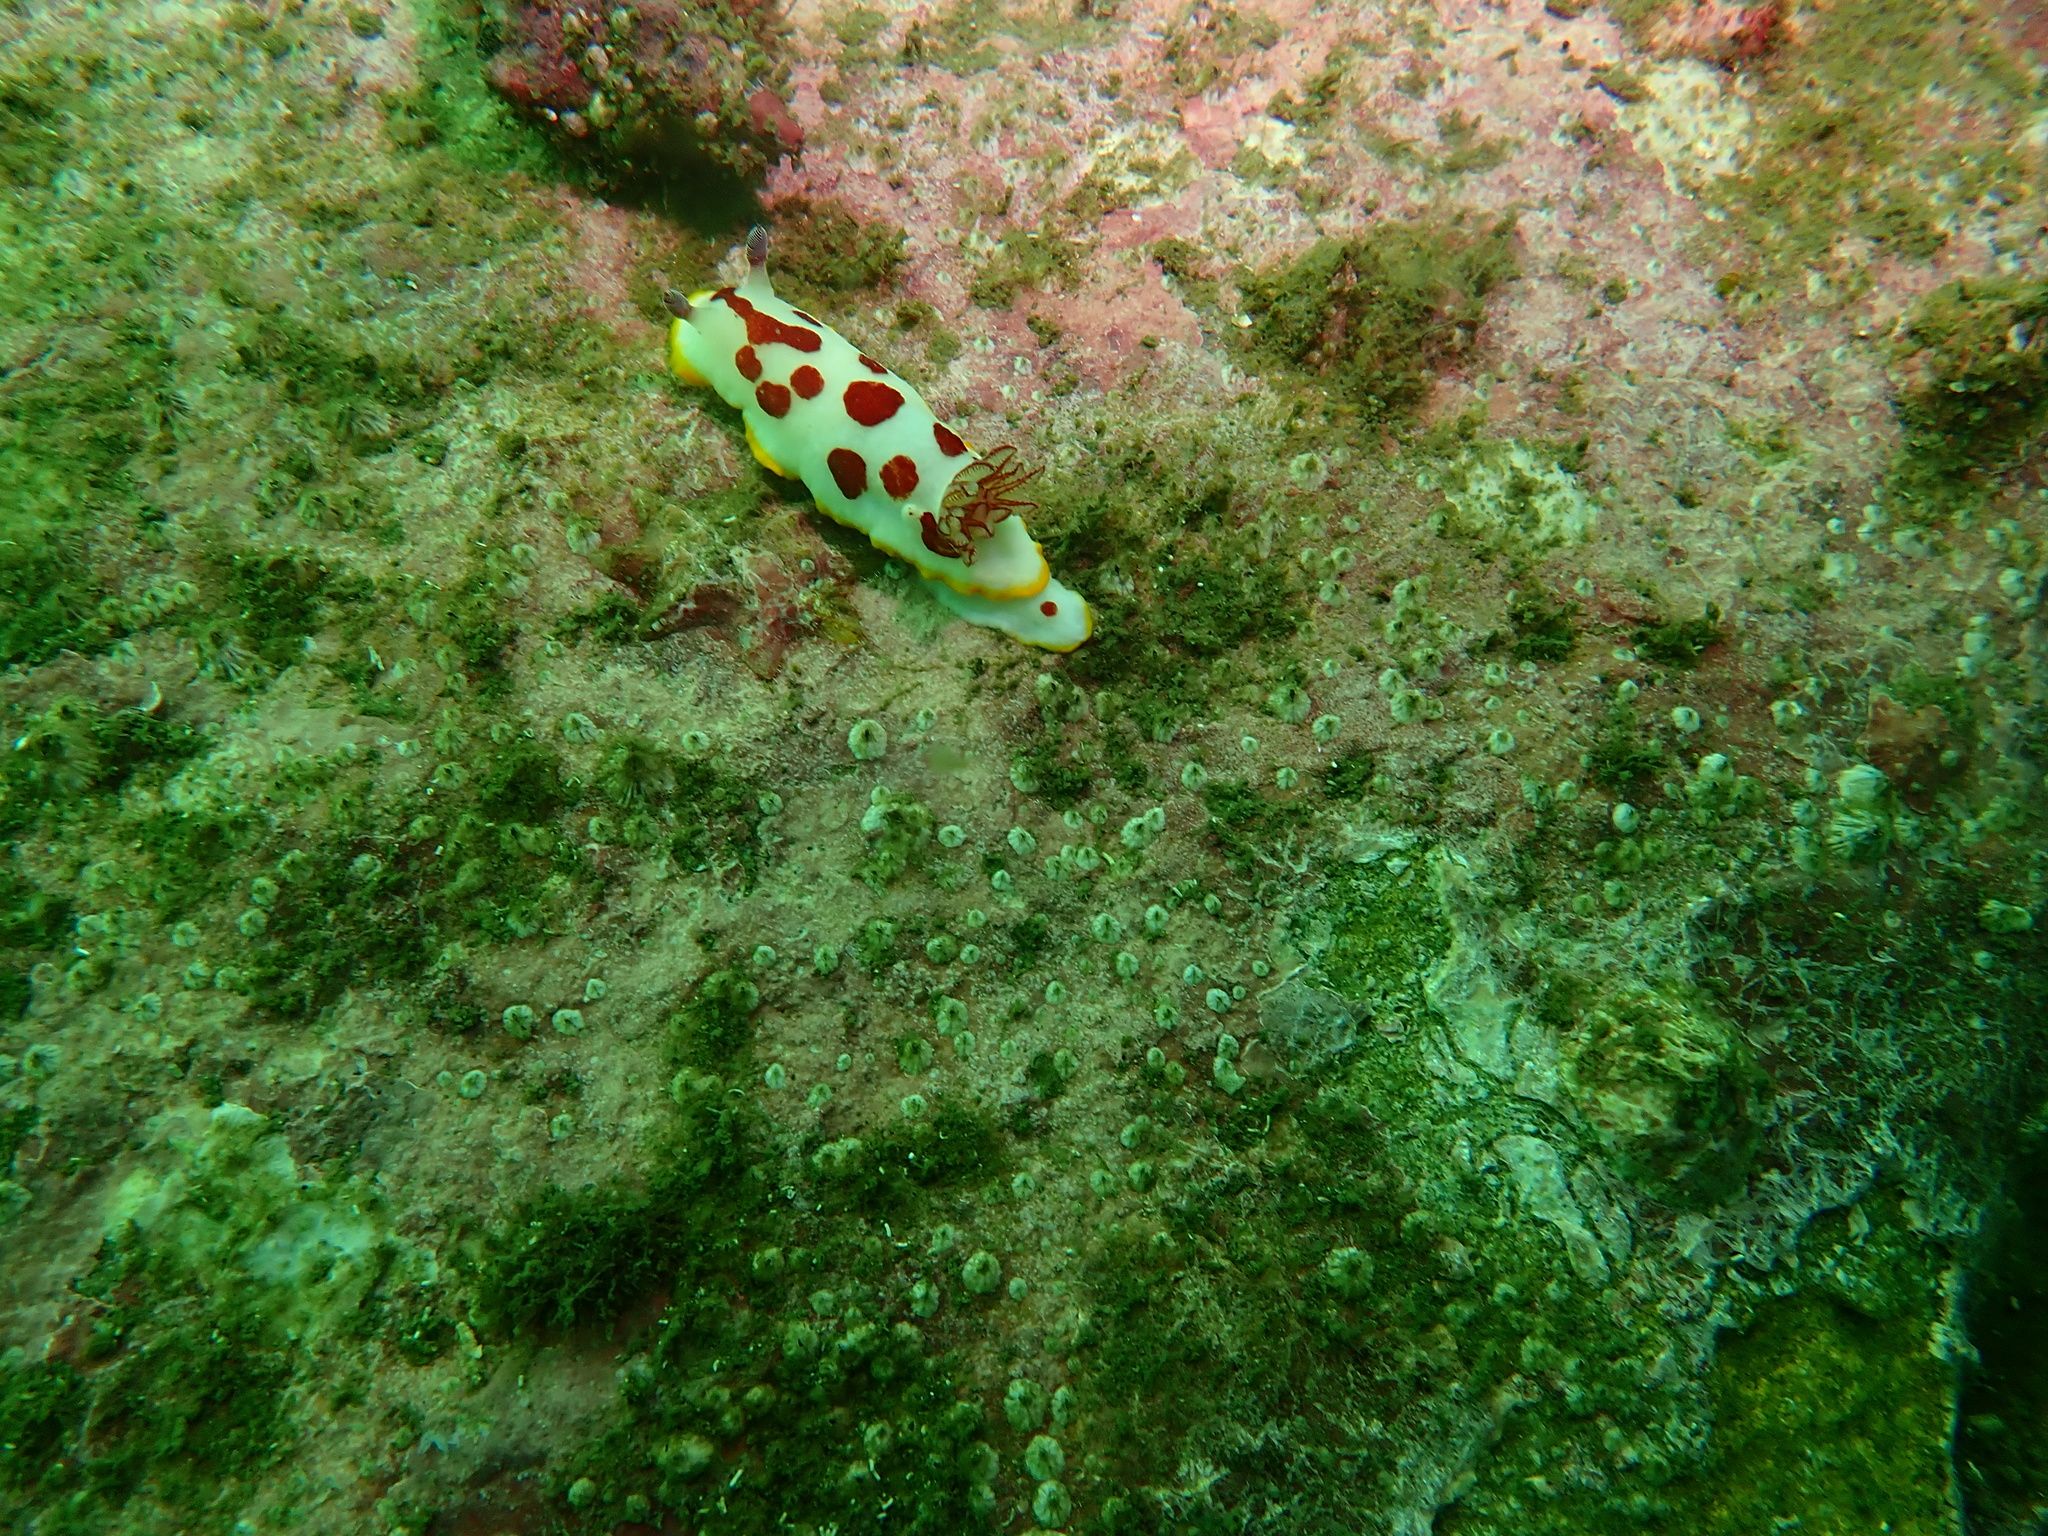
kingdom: Animalia
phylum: Mollusca
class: Gastropoda
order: Nudibranchia
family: Chromodorididae
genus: Goniobranchus
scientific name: Goniobranchus splendidus
